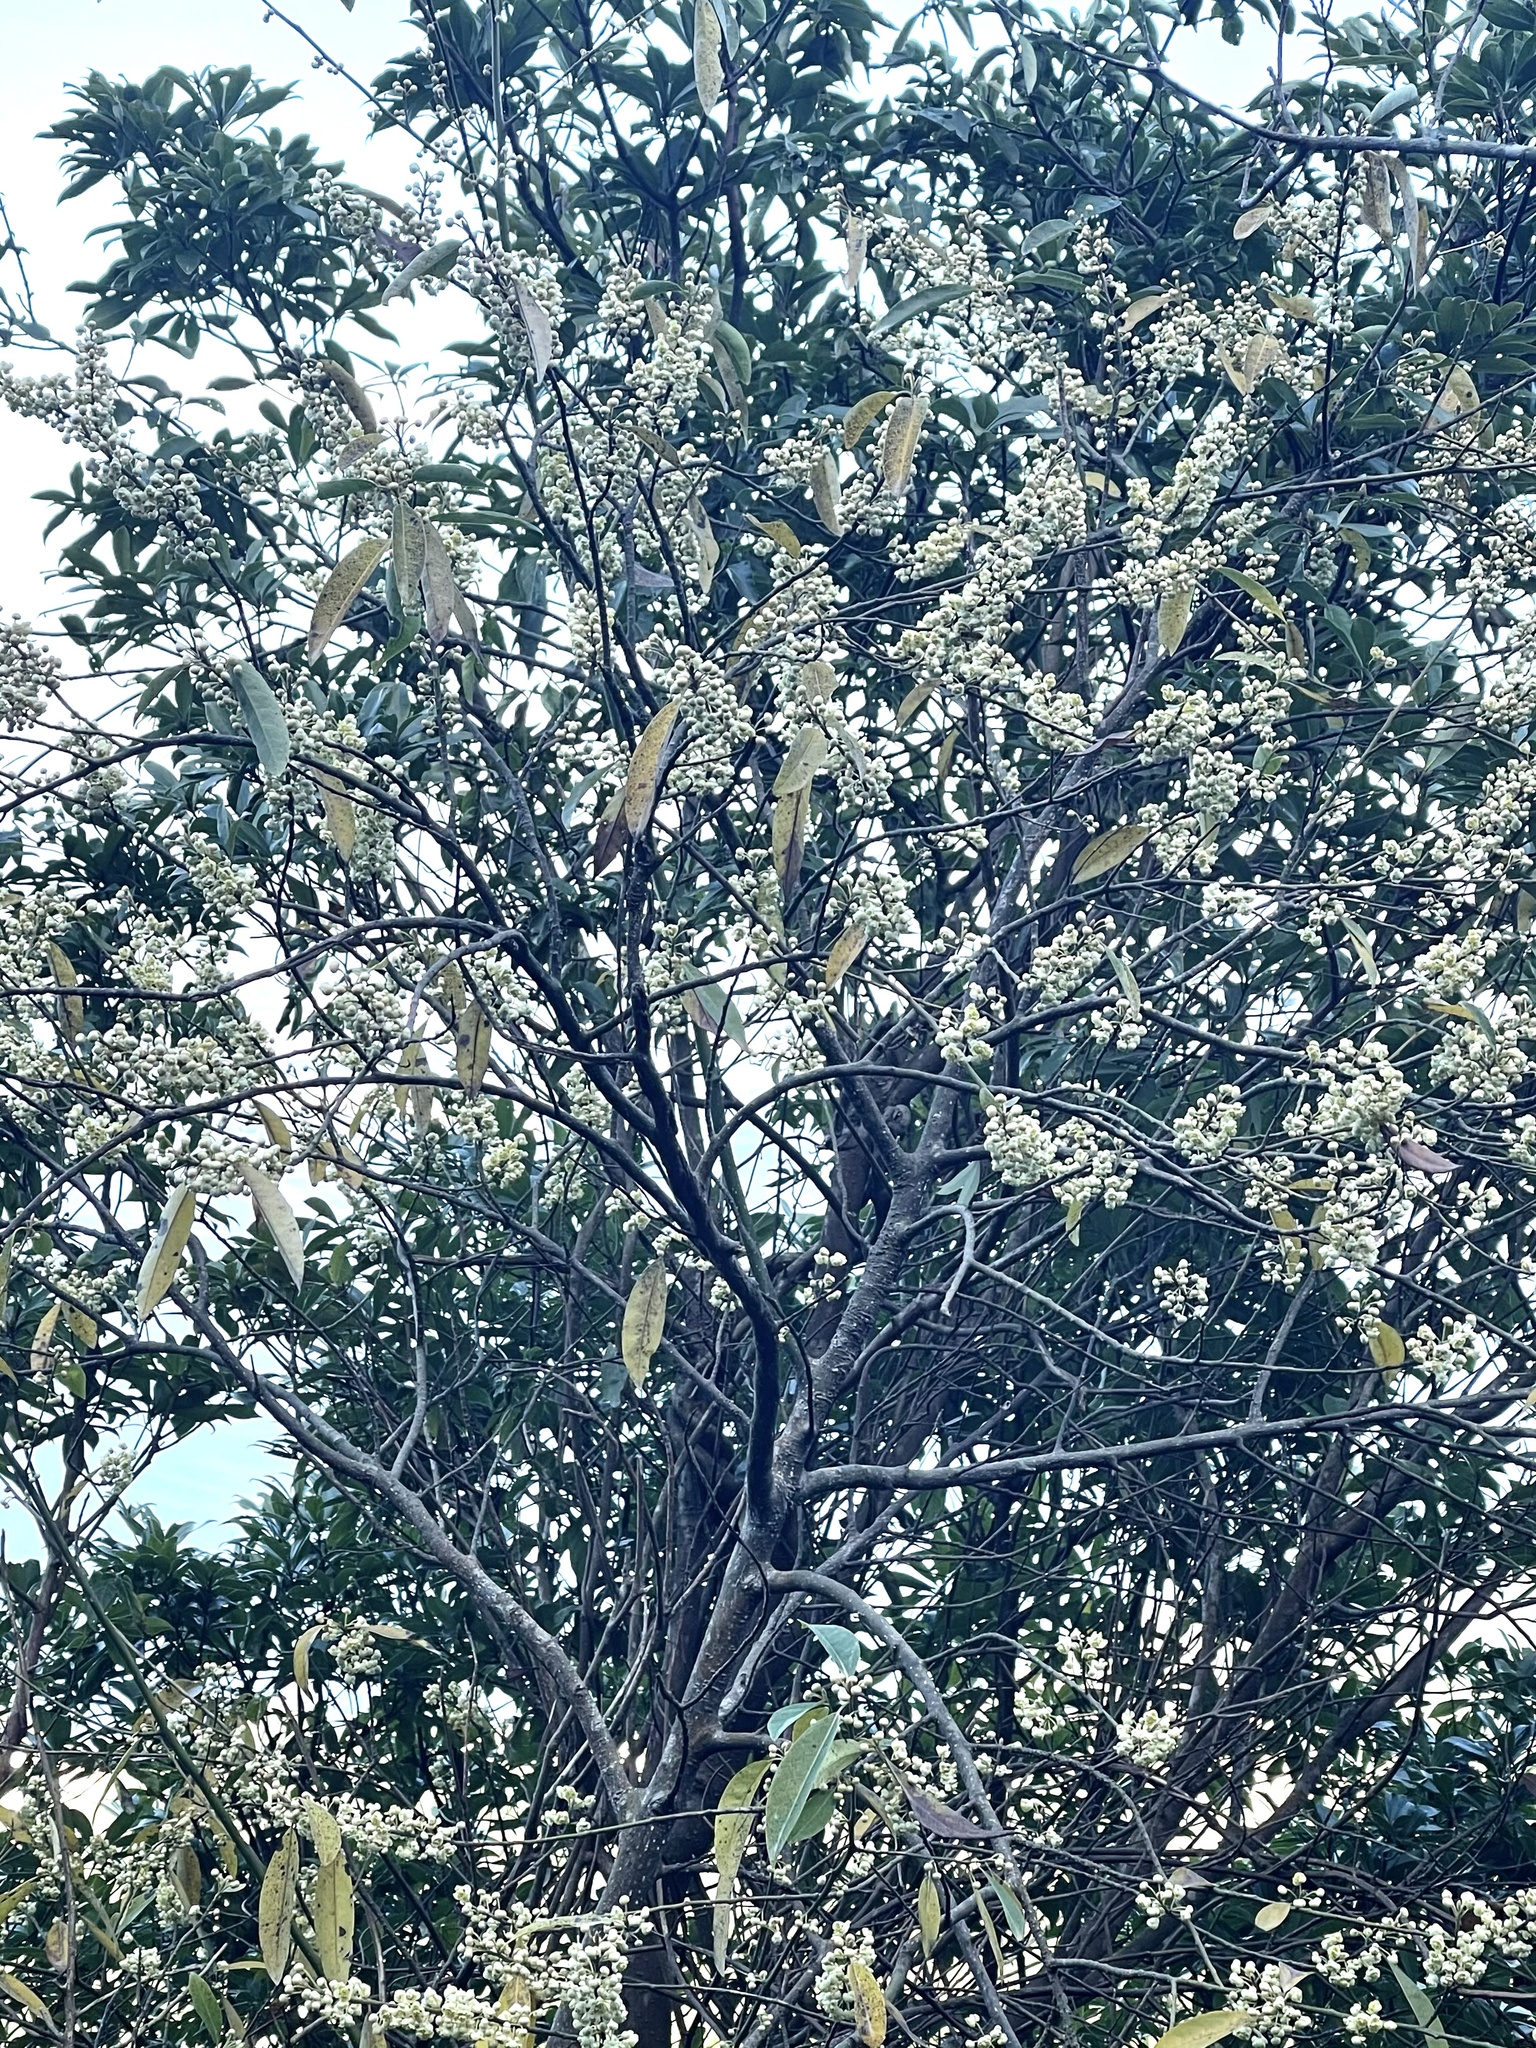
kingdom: Plantae
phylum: Tracheophyta
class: Magnoliopsida
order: Laurales
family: Lauraceae
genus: Litsea
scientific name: Litsea cubeba
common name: Mountain-pepper
